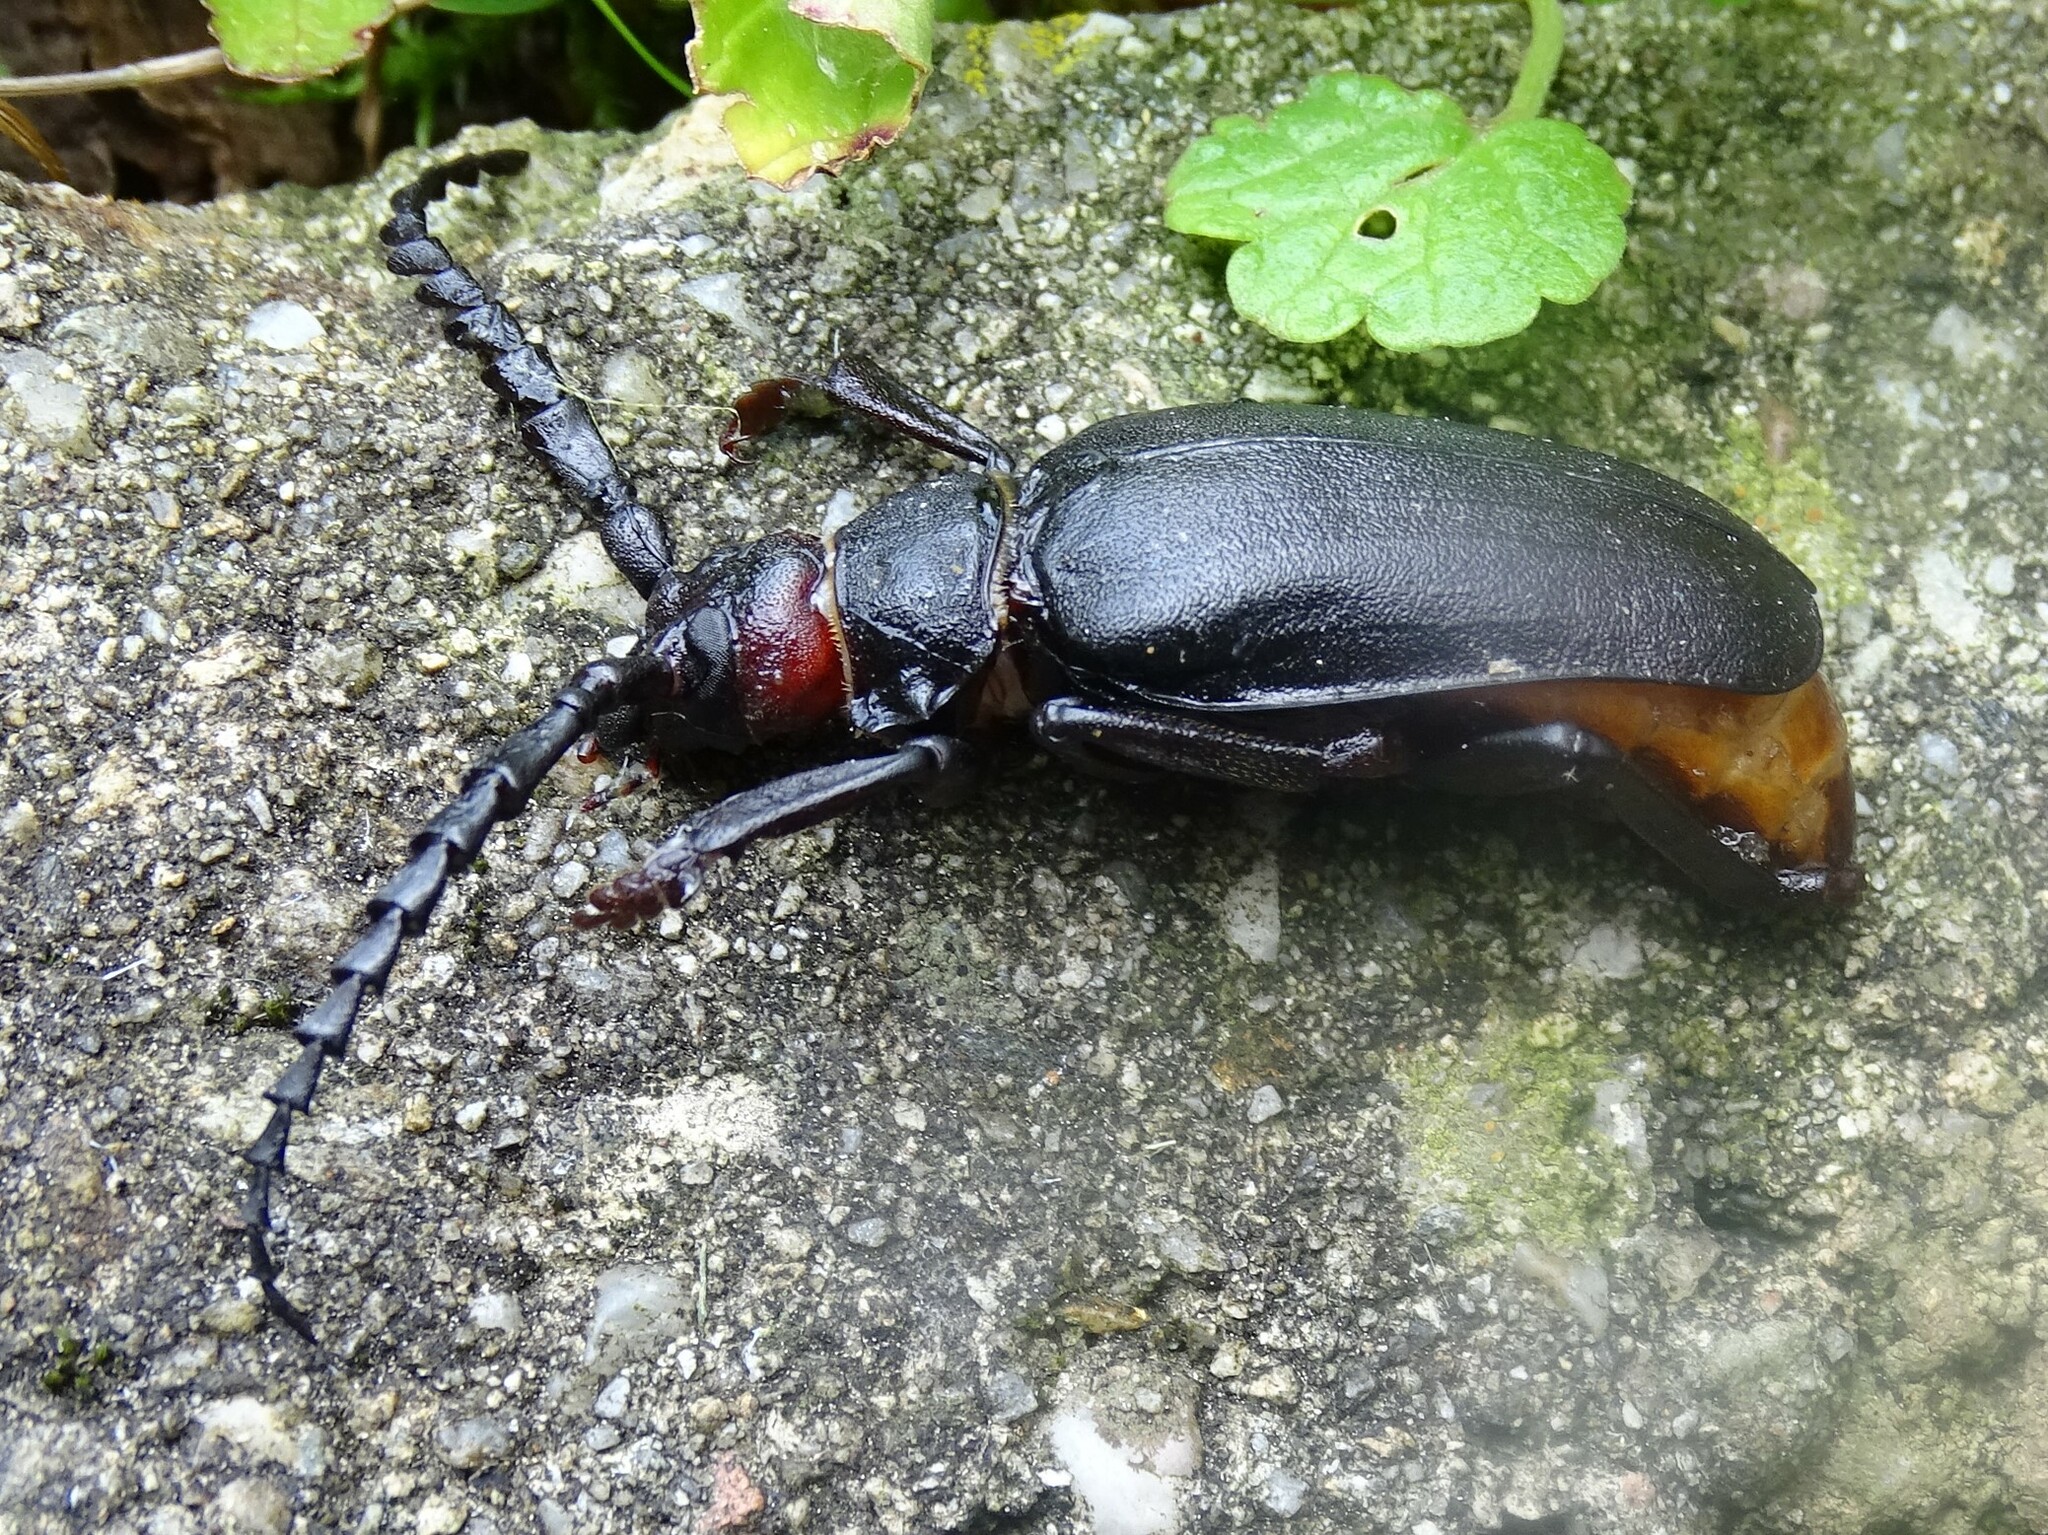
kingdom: Animalia
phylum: Arthropoda
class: Insecta
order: Coleoptera
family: Cerambycidae
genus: Prionus
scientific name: Prionus coriarius
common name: Tanner beetle
